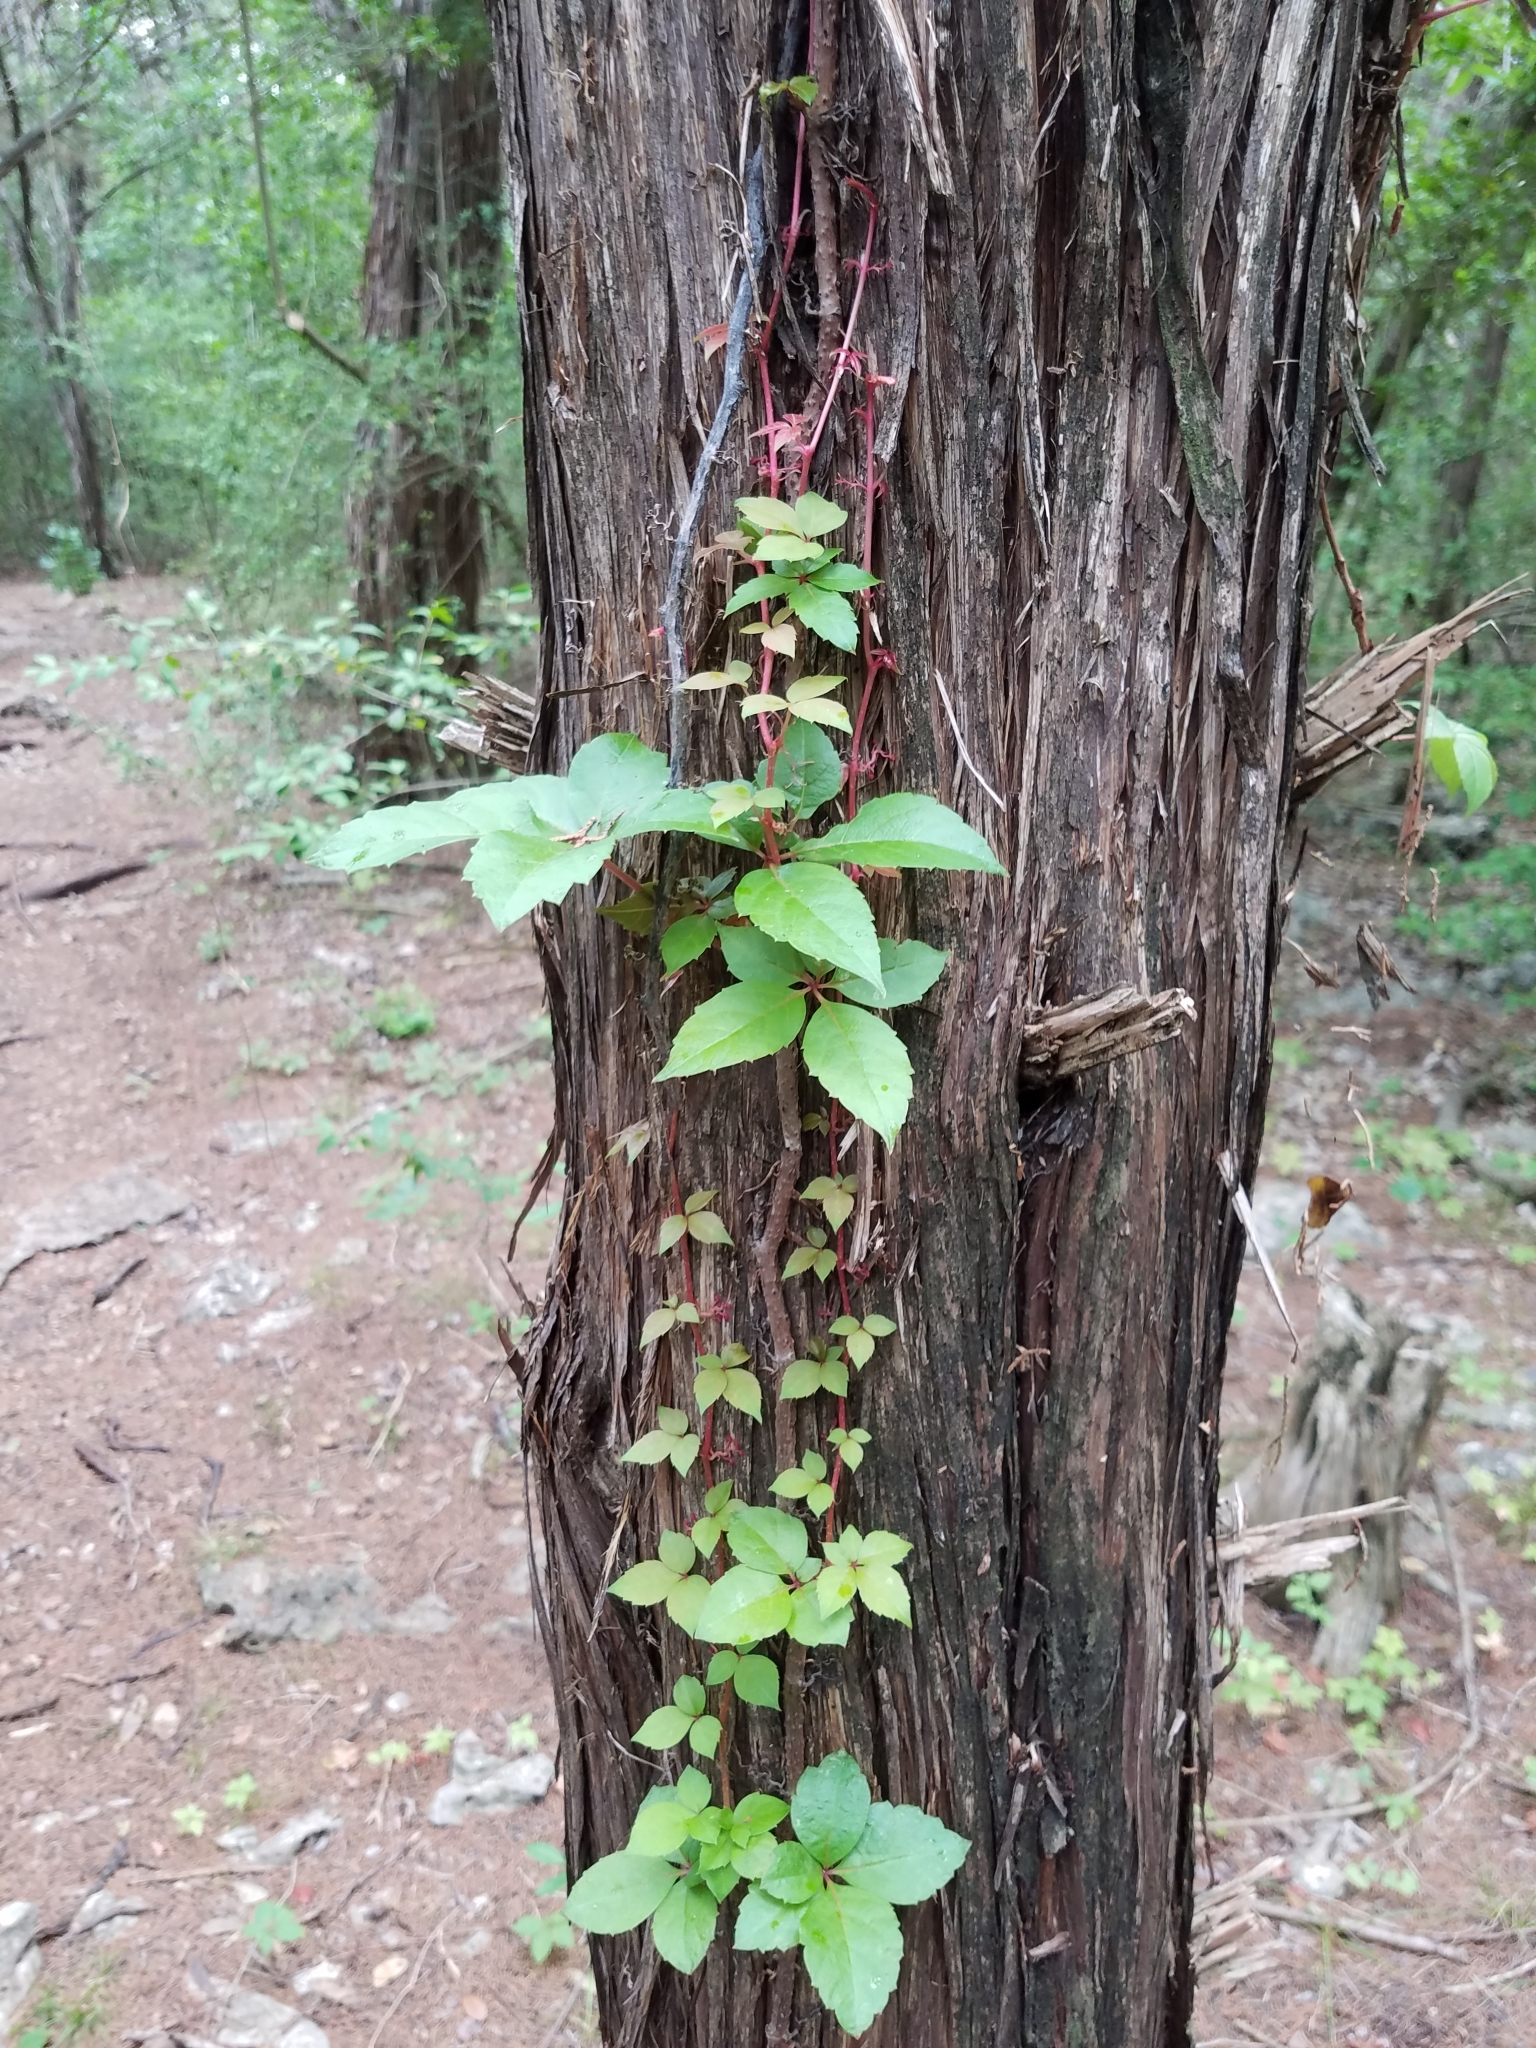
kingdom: Plantae
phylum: Tracheophyta
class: Magnoliopsida
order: Vitales
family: Vitaceae
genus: Parthenocissus
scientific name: Parthenocissus quinquefolia
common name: Virginia-creeper
